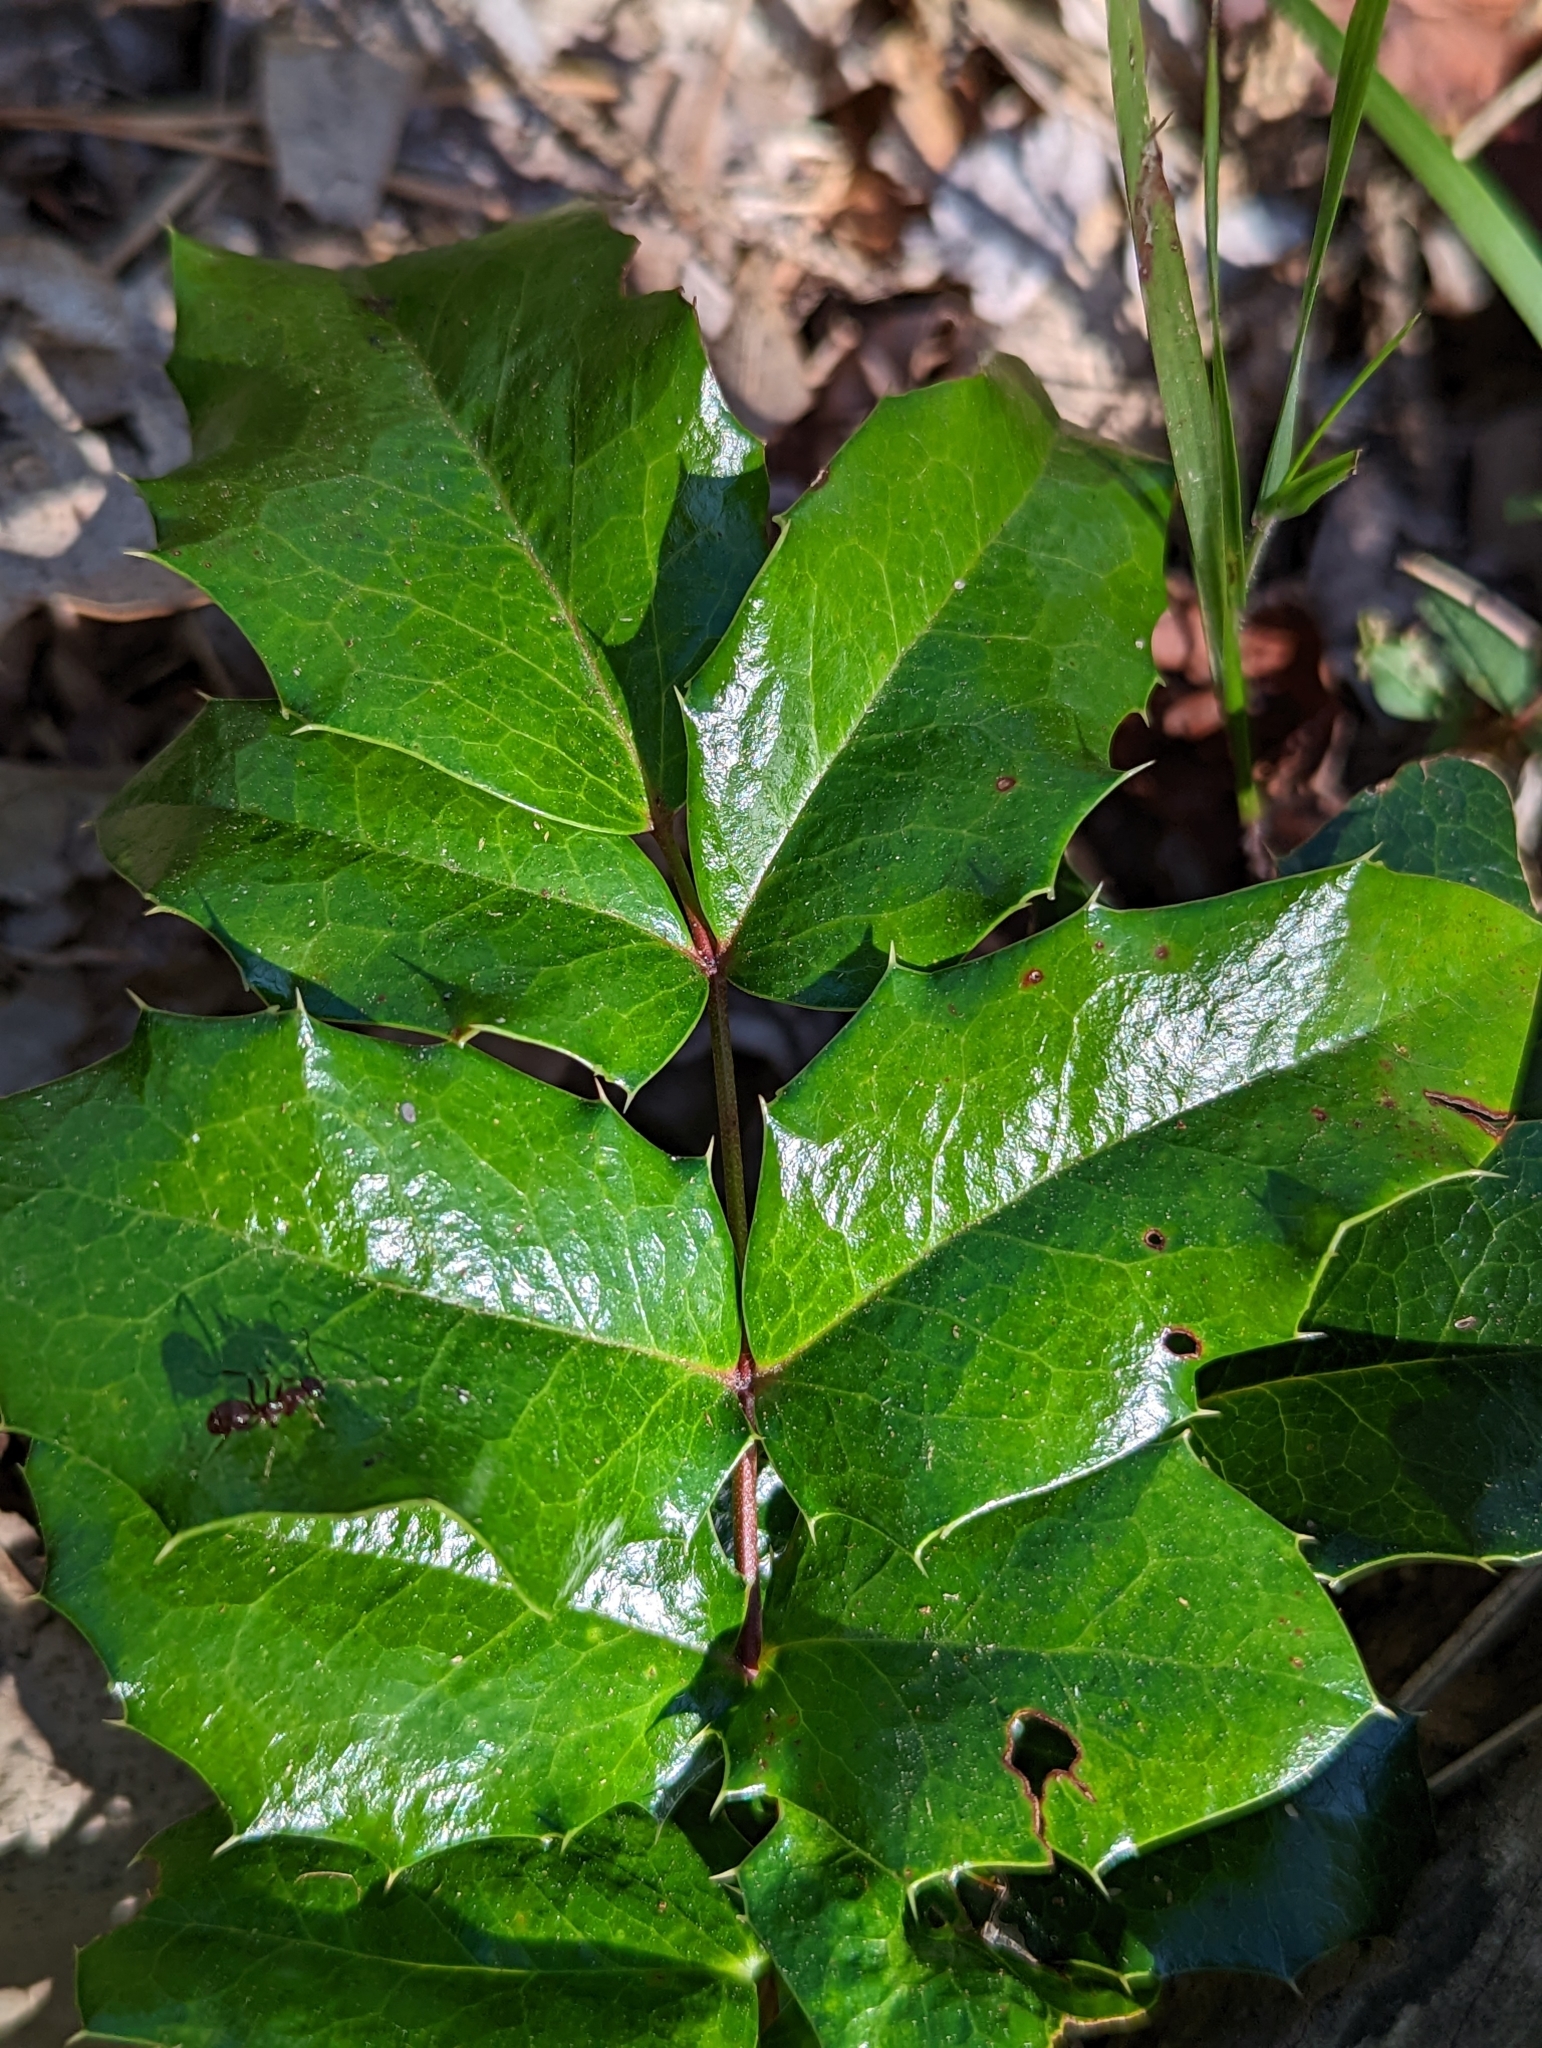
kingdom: Plantae
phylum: Tracheophyta
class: Magnoliopsida
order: Ranunculales
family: Berberidaceae
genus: Mahonia
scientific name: Mahonia aquifolium
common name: Oregon-grape
